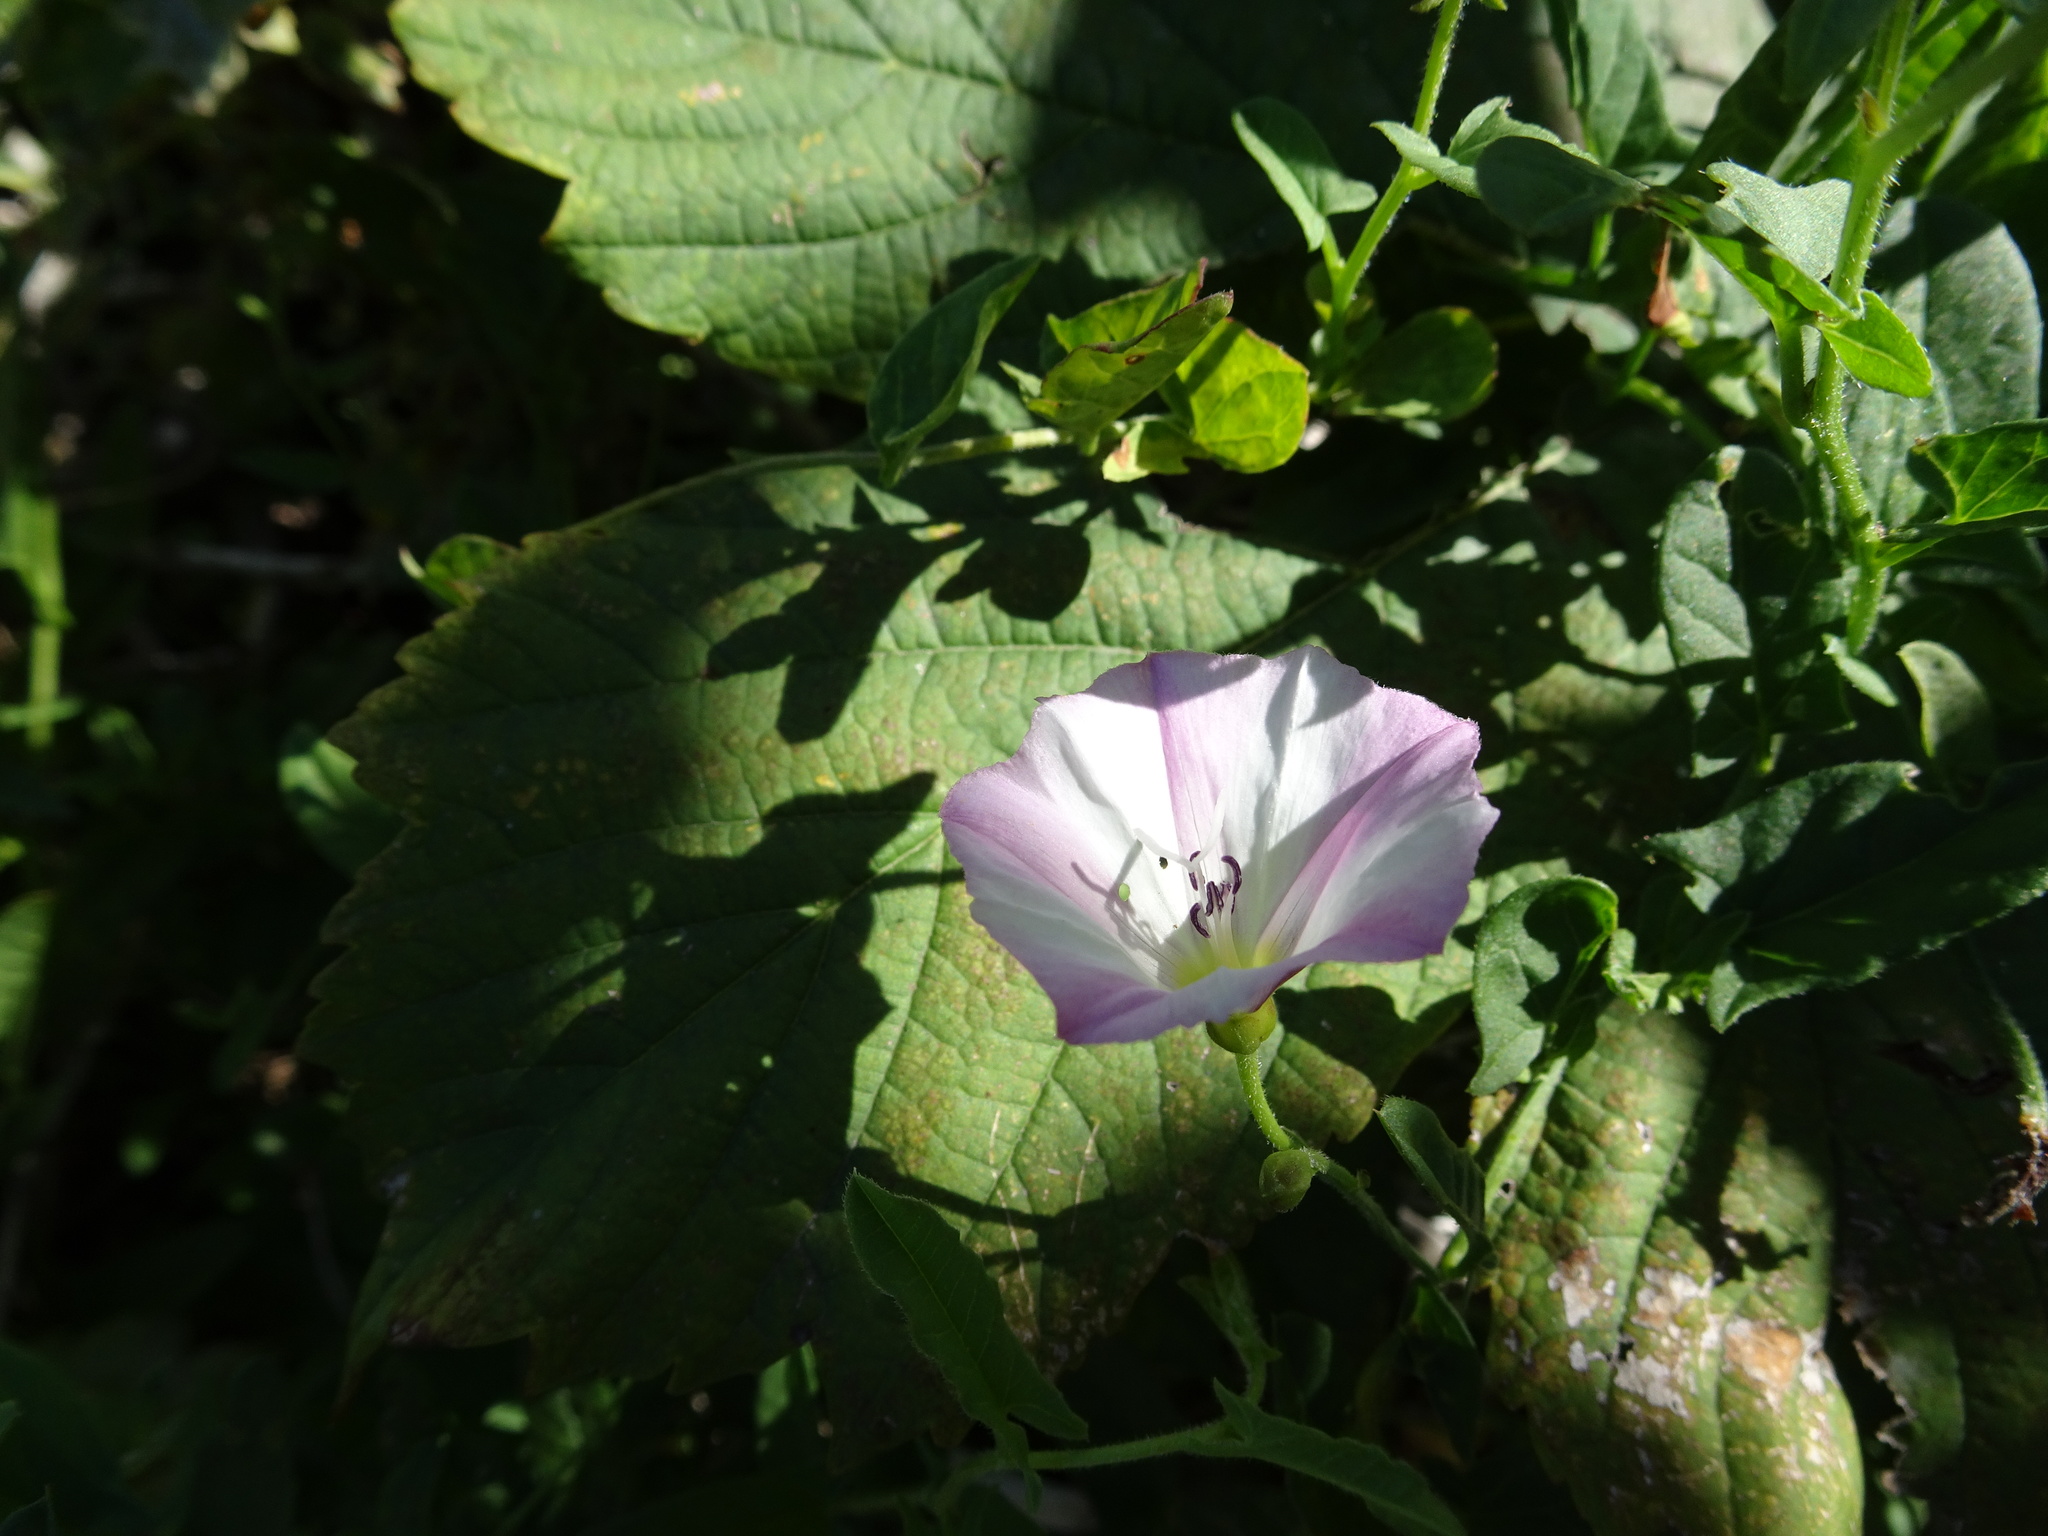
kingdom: Plantae
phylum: Tracheophyta
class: Magnoliopsida
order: Solanales
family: Convolvulaceae
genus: Convolvulus
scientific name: Convolvulus arvensis
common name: Field bindweed
